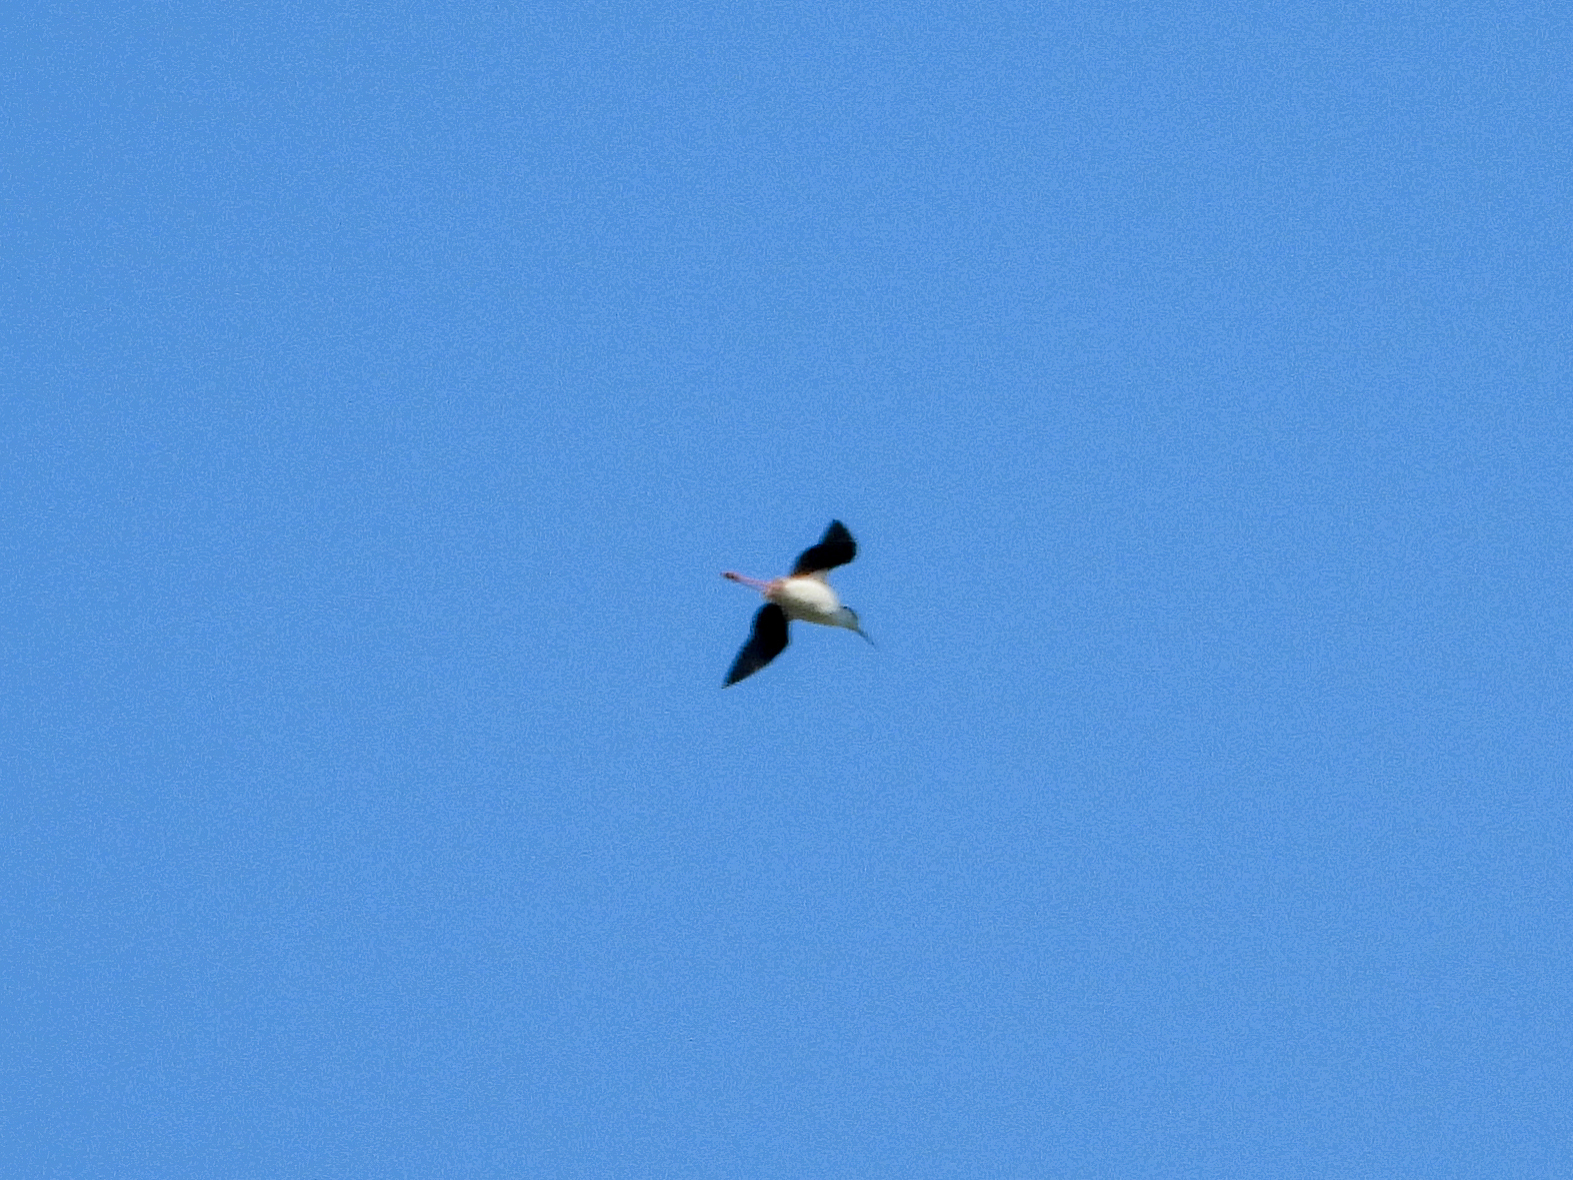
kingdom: Animalia
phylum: Chordata
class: Aves
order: Charadriiformes
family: Recurvirostridae
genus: Himantopus
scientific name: Himantopus mexicanus
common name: Black-necked stilt
